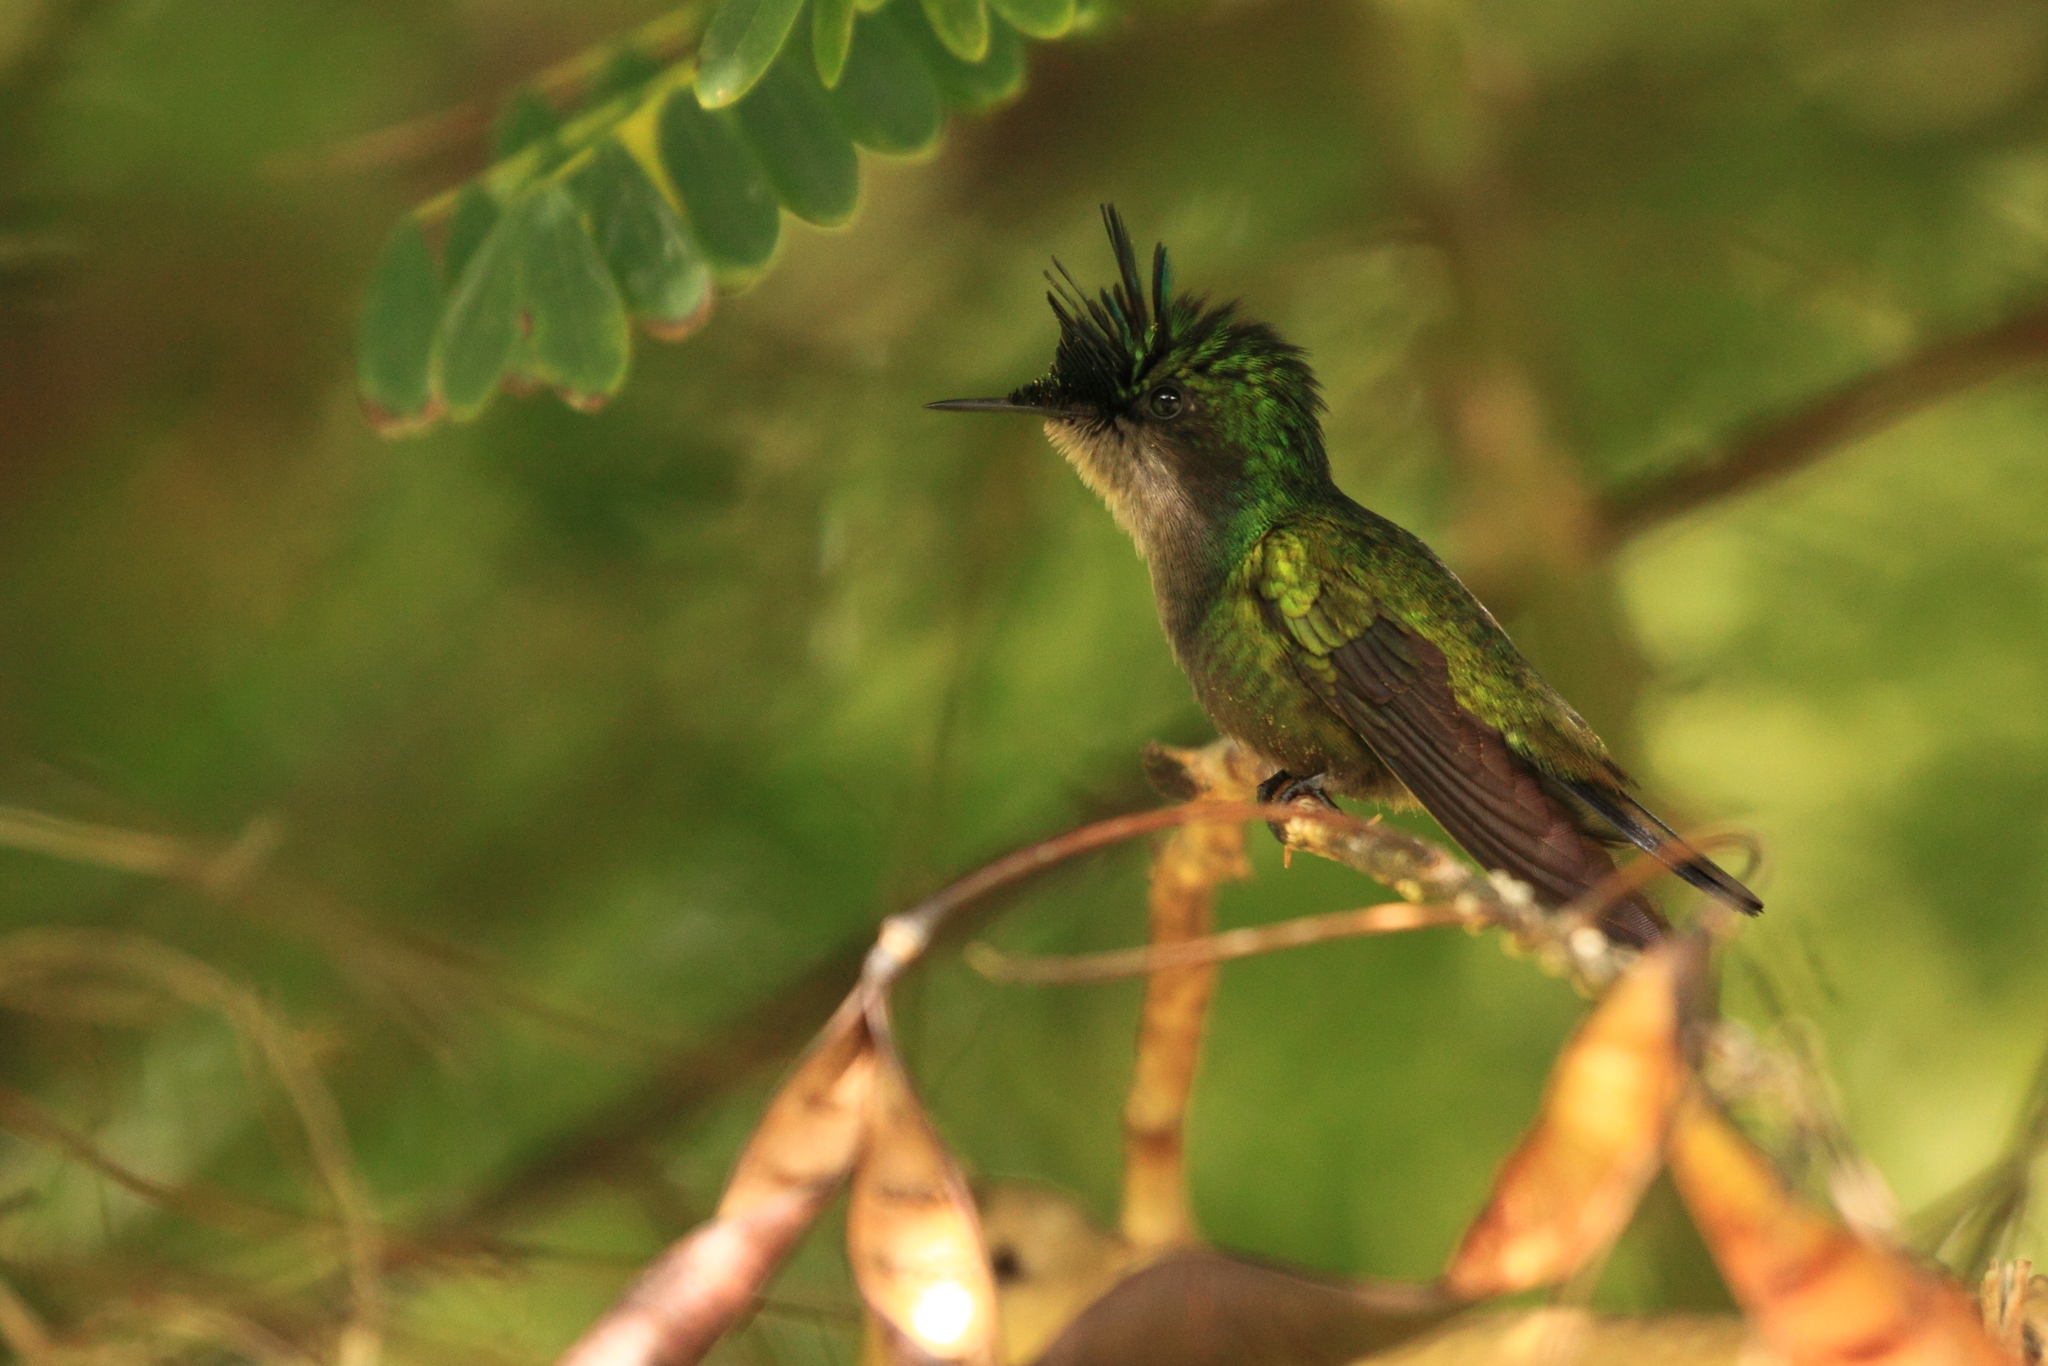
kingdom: Animalia
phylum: Chordata
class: Aves
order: Apodiformes
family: Trochilidae
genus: Orthorhyncus
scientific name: Orthorhyncus cristatus
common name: Antillean crested hummingbird
